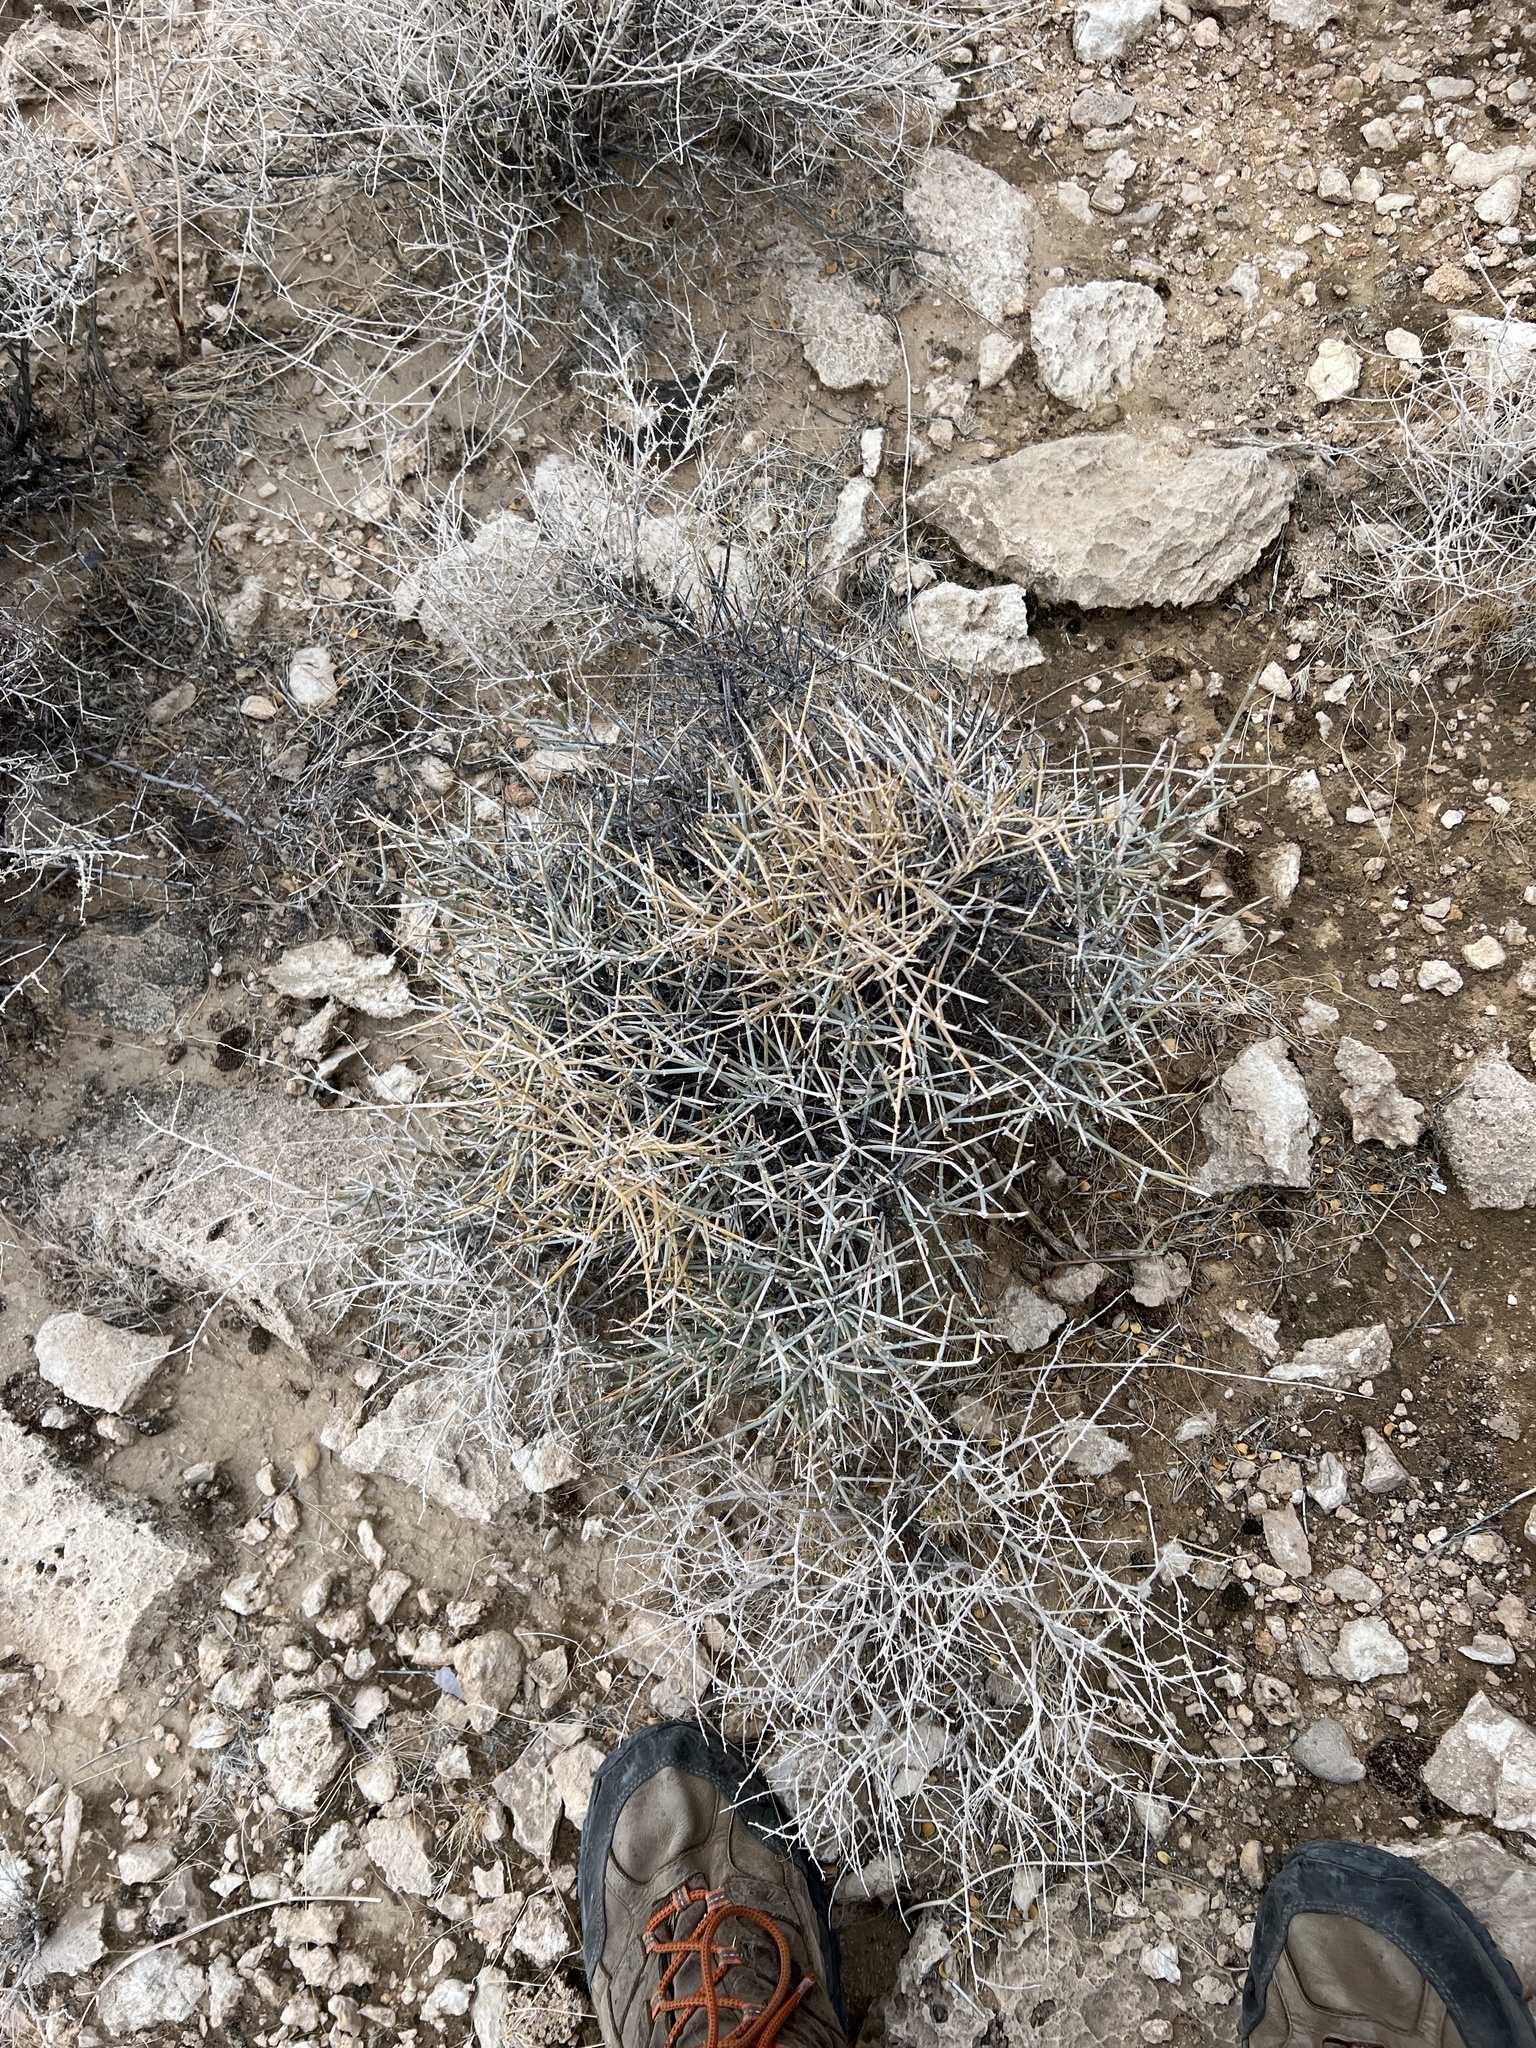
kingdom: Plantae
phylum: Tracheophyta
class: Gnetopsida
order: Ephedrales
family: Ephedraceae
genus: Ephedra
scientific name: Ephedra nevadensis
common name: Gray ephedra
